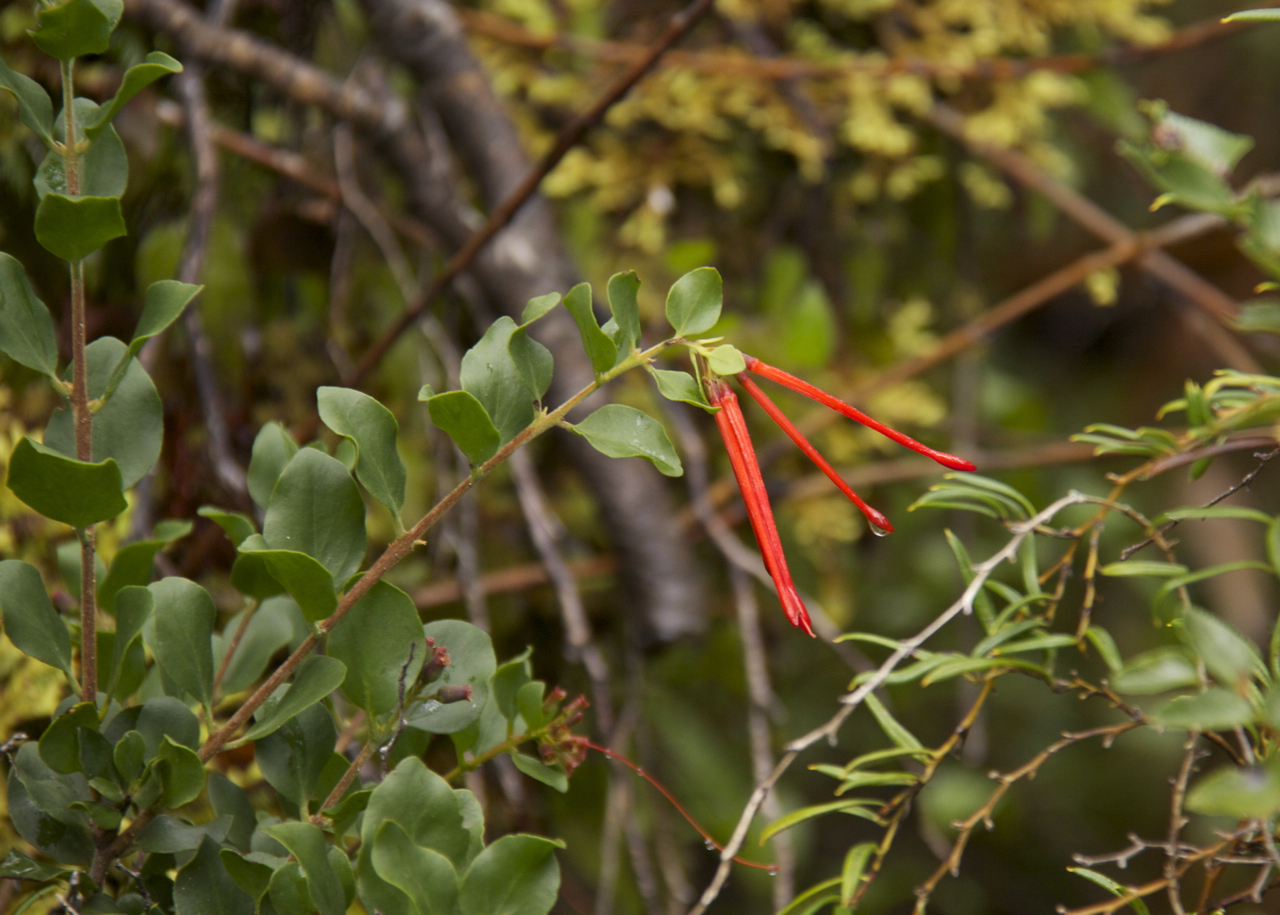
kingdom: Plantae
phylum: Tracheophyta
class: Magnoliopsida
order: Santalales
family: Loranthaceae
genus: Tristerix
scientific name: Tristerix corymbosus
